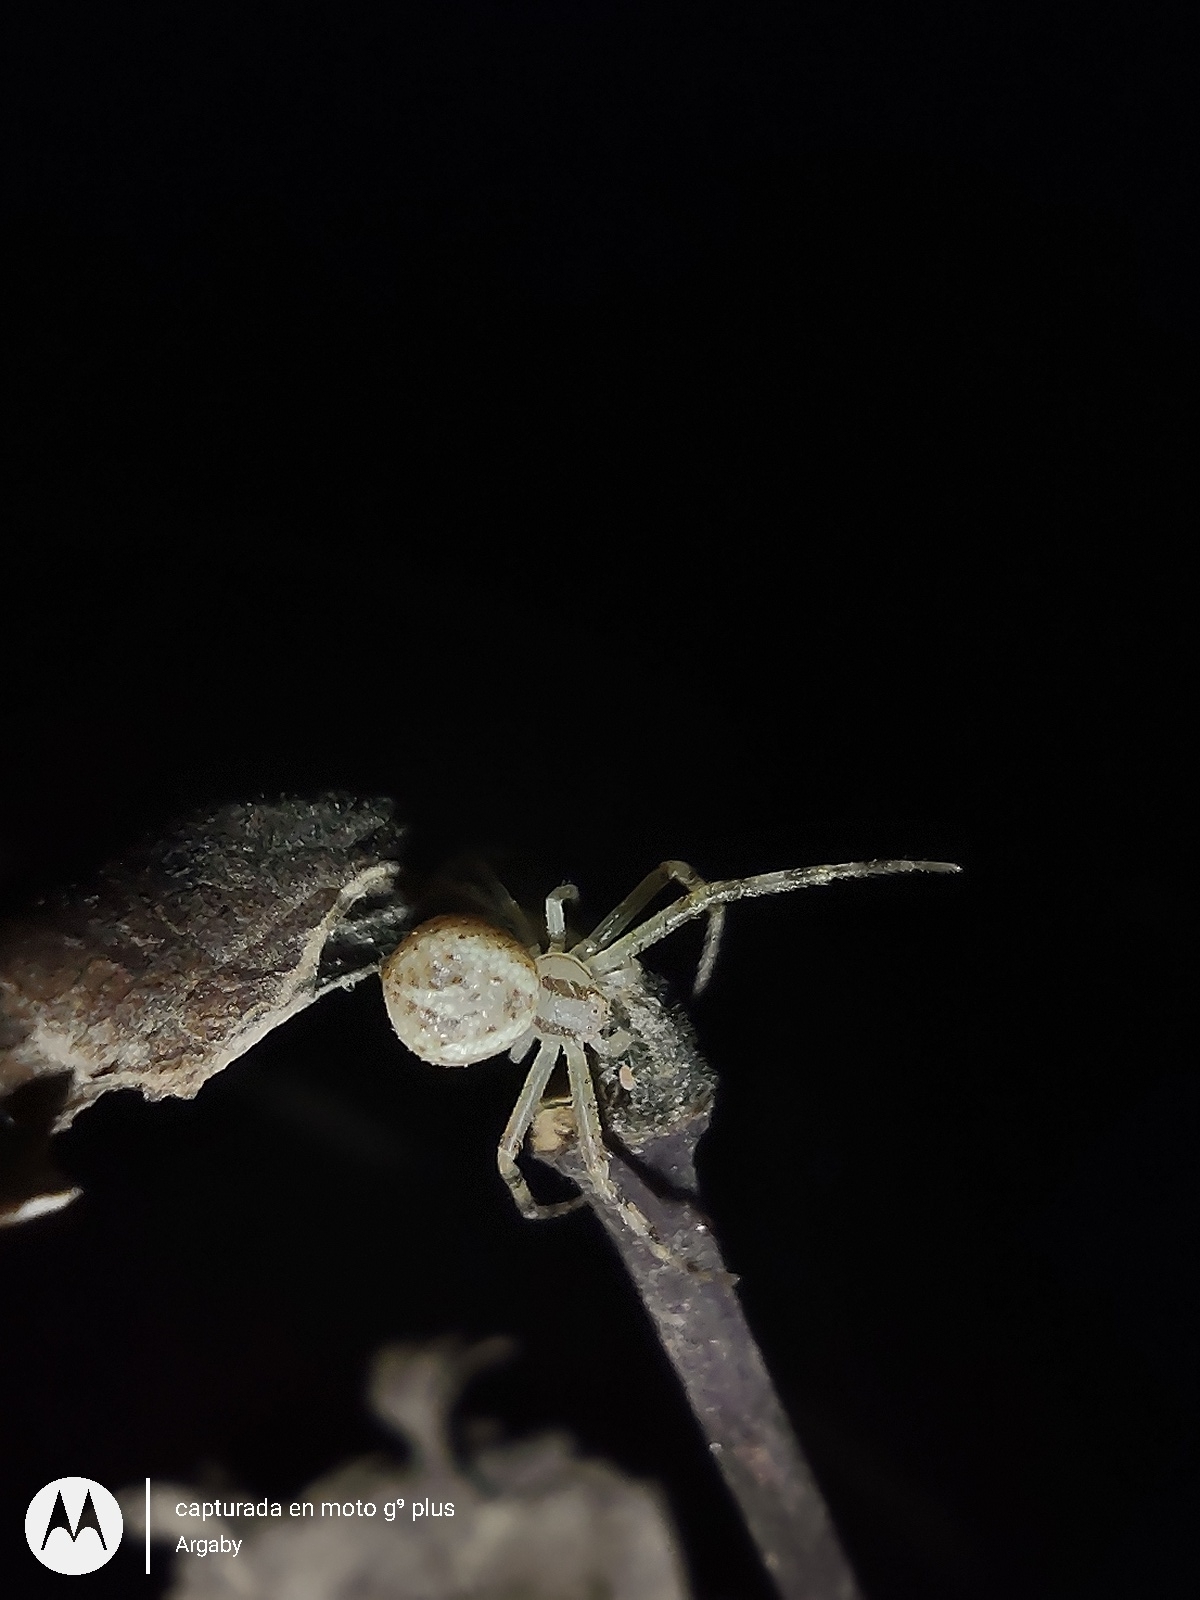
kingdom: Animalia
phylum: Arthropoda
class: Arachnida
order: Araneae
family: Thomisidae
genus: Misumenops
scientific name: Misumenops
